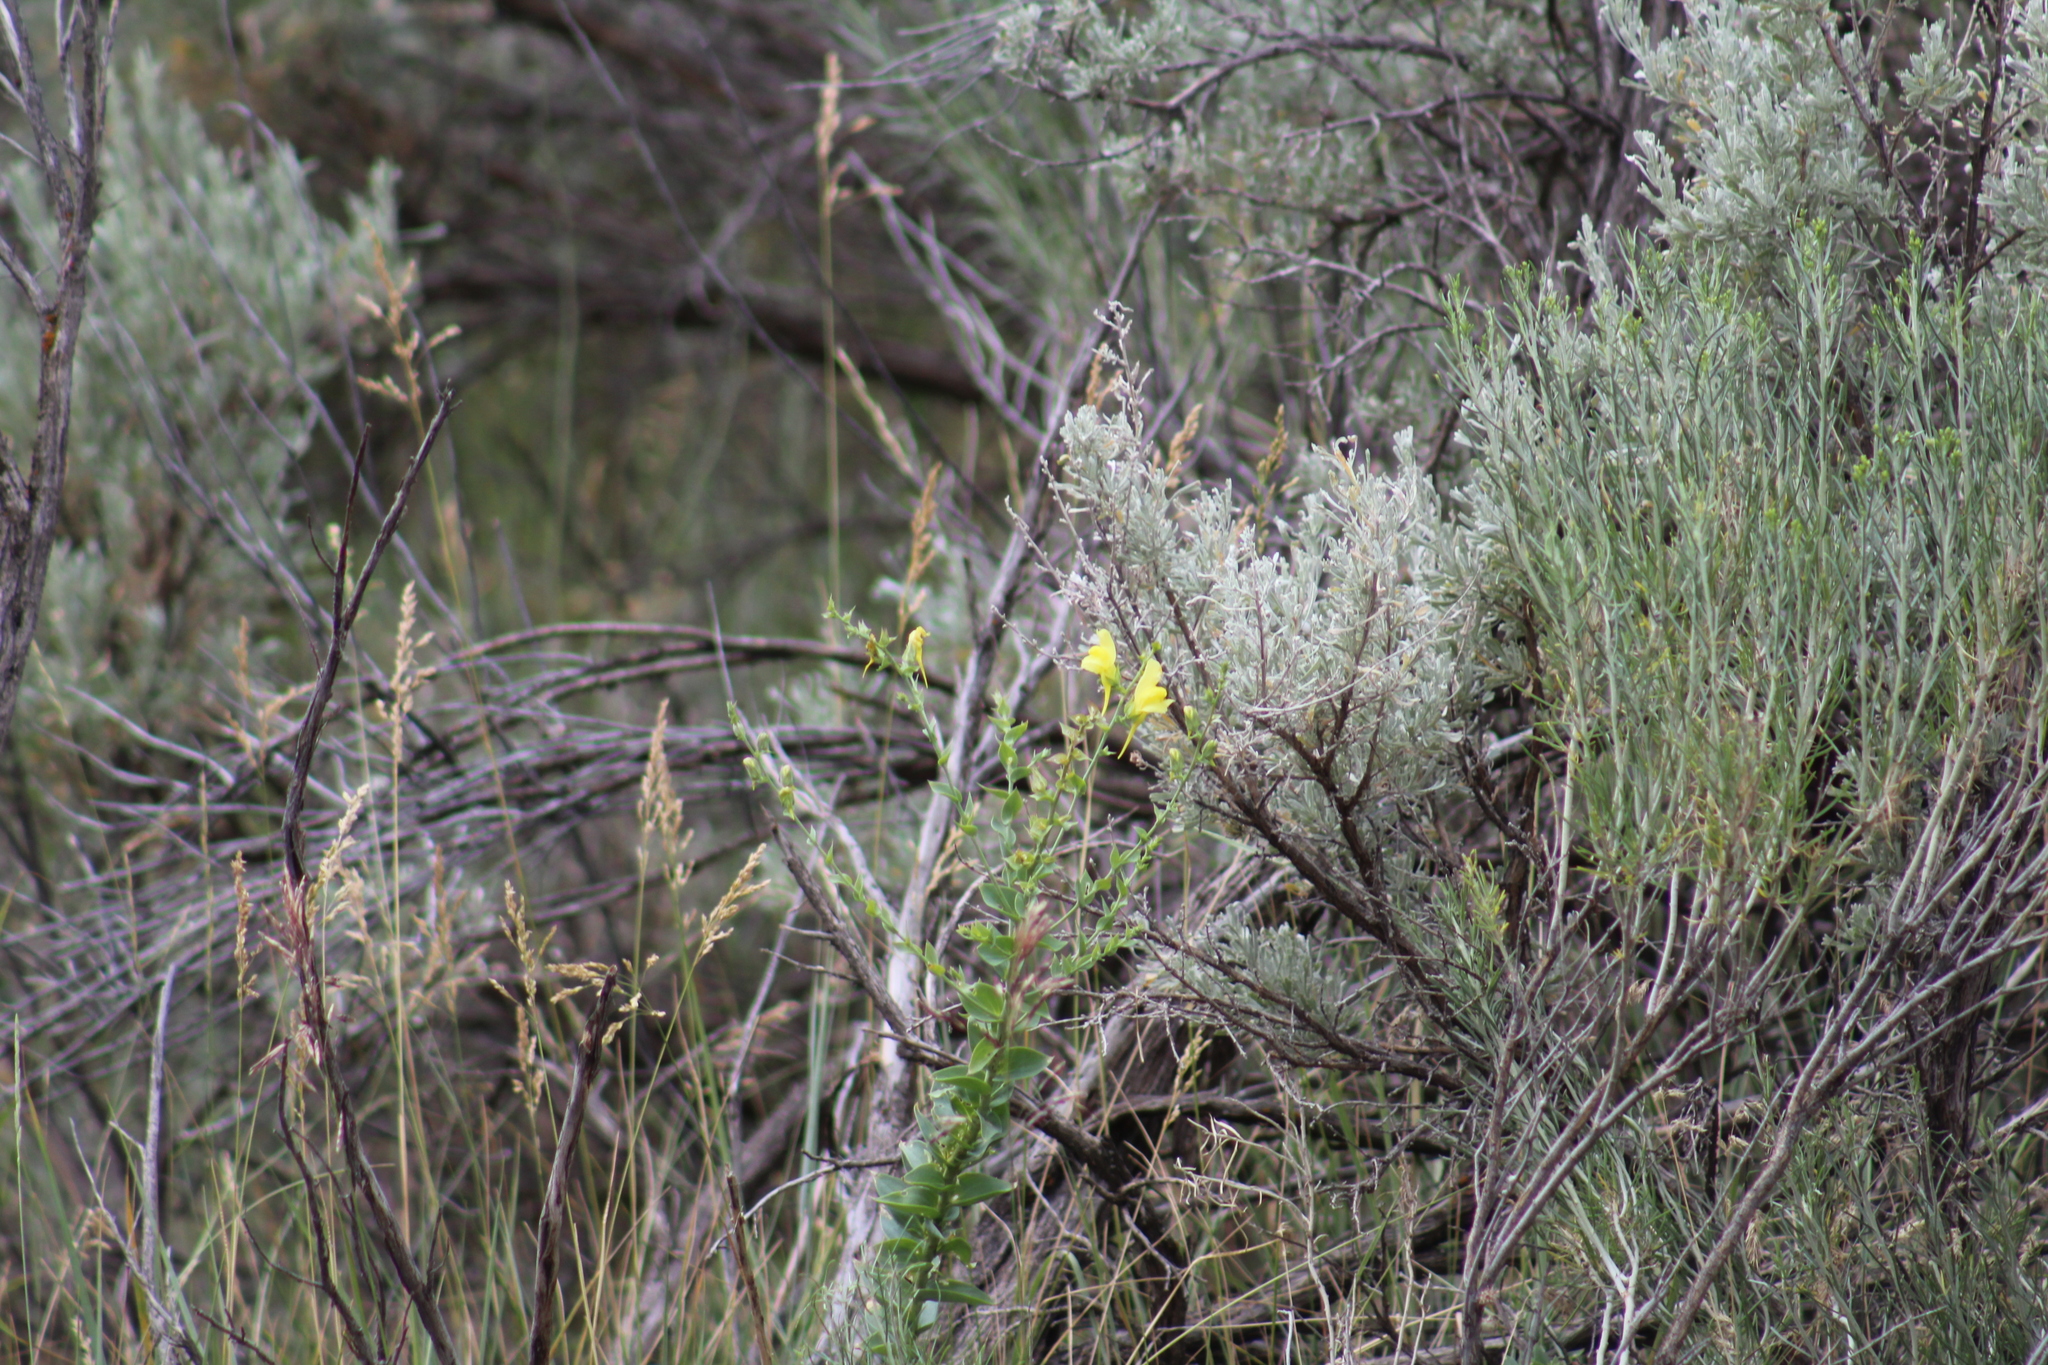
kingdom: Plantae
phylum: Tracheophyta
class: Magnoliopsida
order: Lamiales
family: Plantaginaceae
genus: Linaria
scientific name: Linaria dalmatica
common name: Dalmatian toadflax
